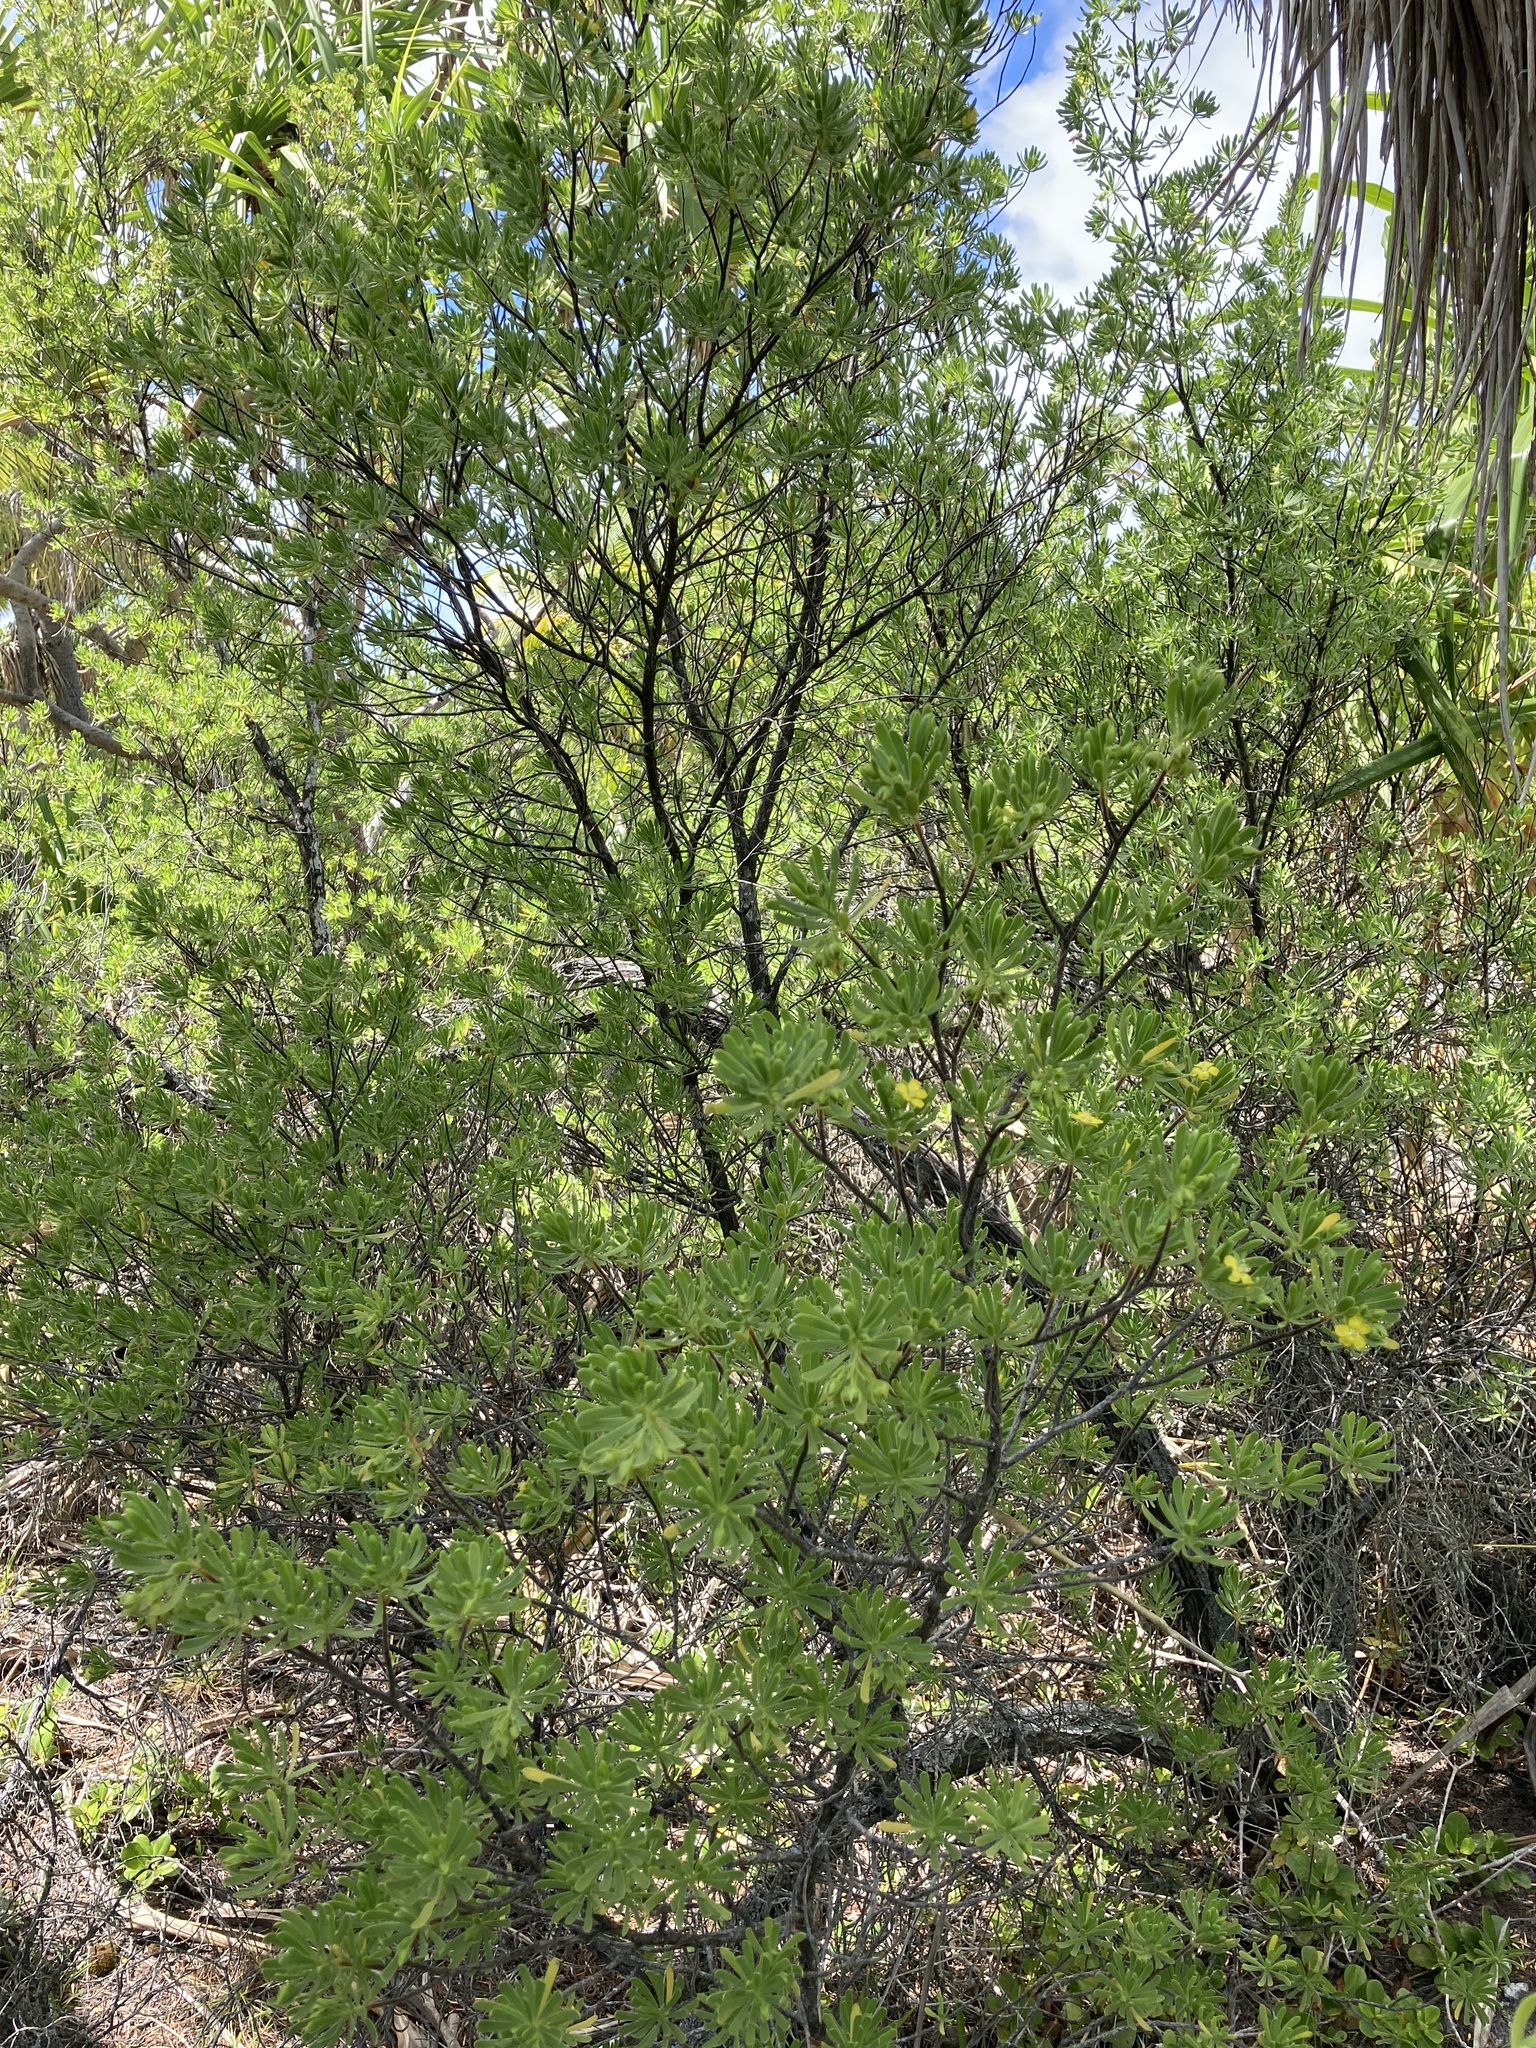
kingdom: Plantae
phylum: Tracheophyta
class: Magnoliopsida
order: Fabales
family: Surianaceae
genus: Suriana
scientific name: Suriana maritima
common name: Bay-cedar
